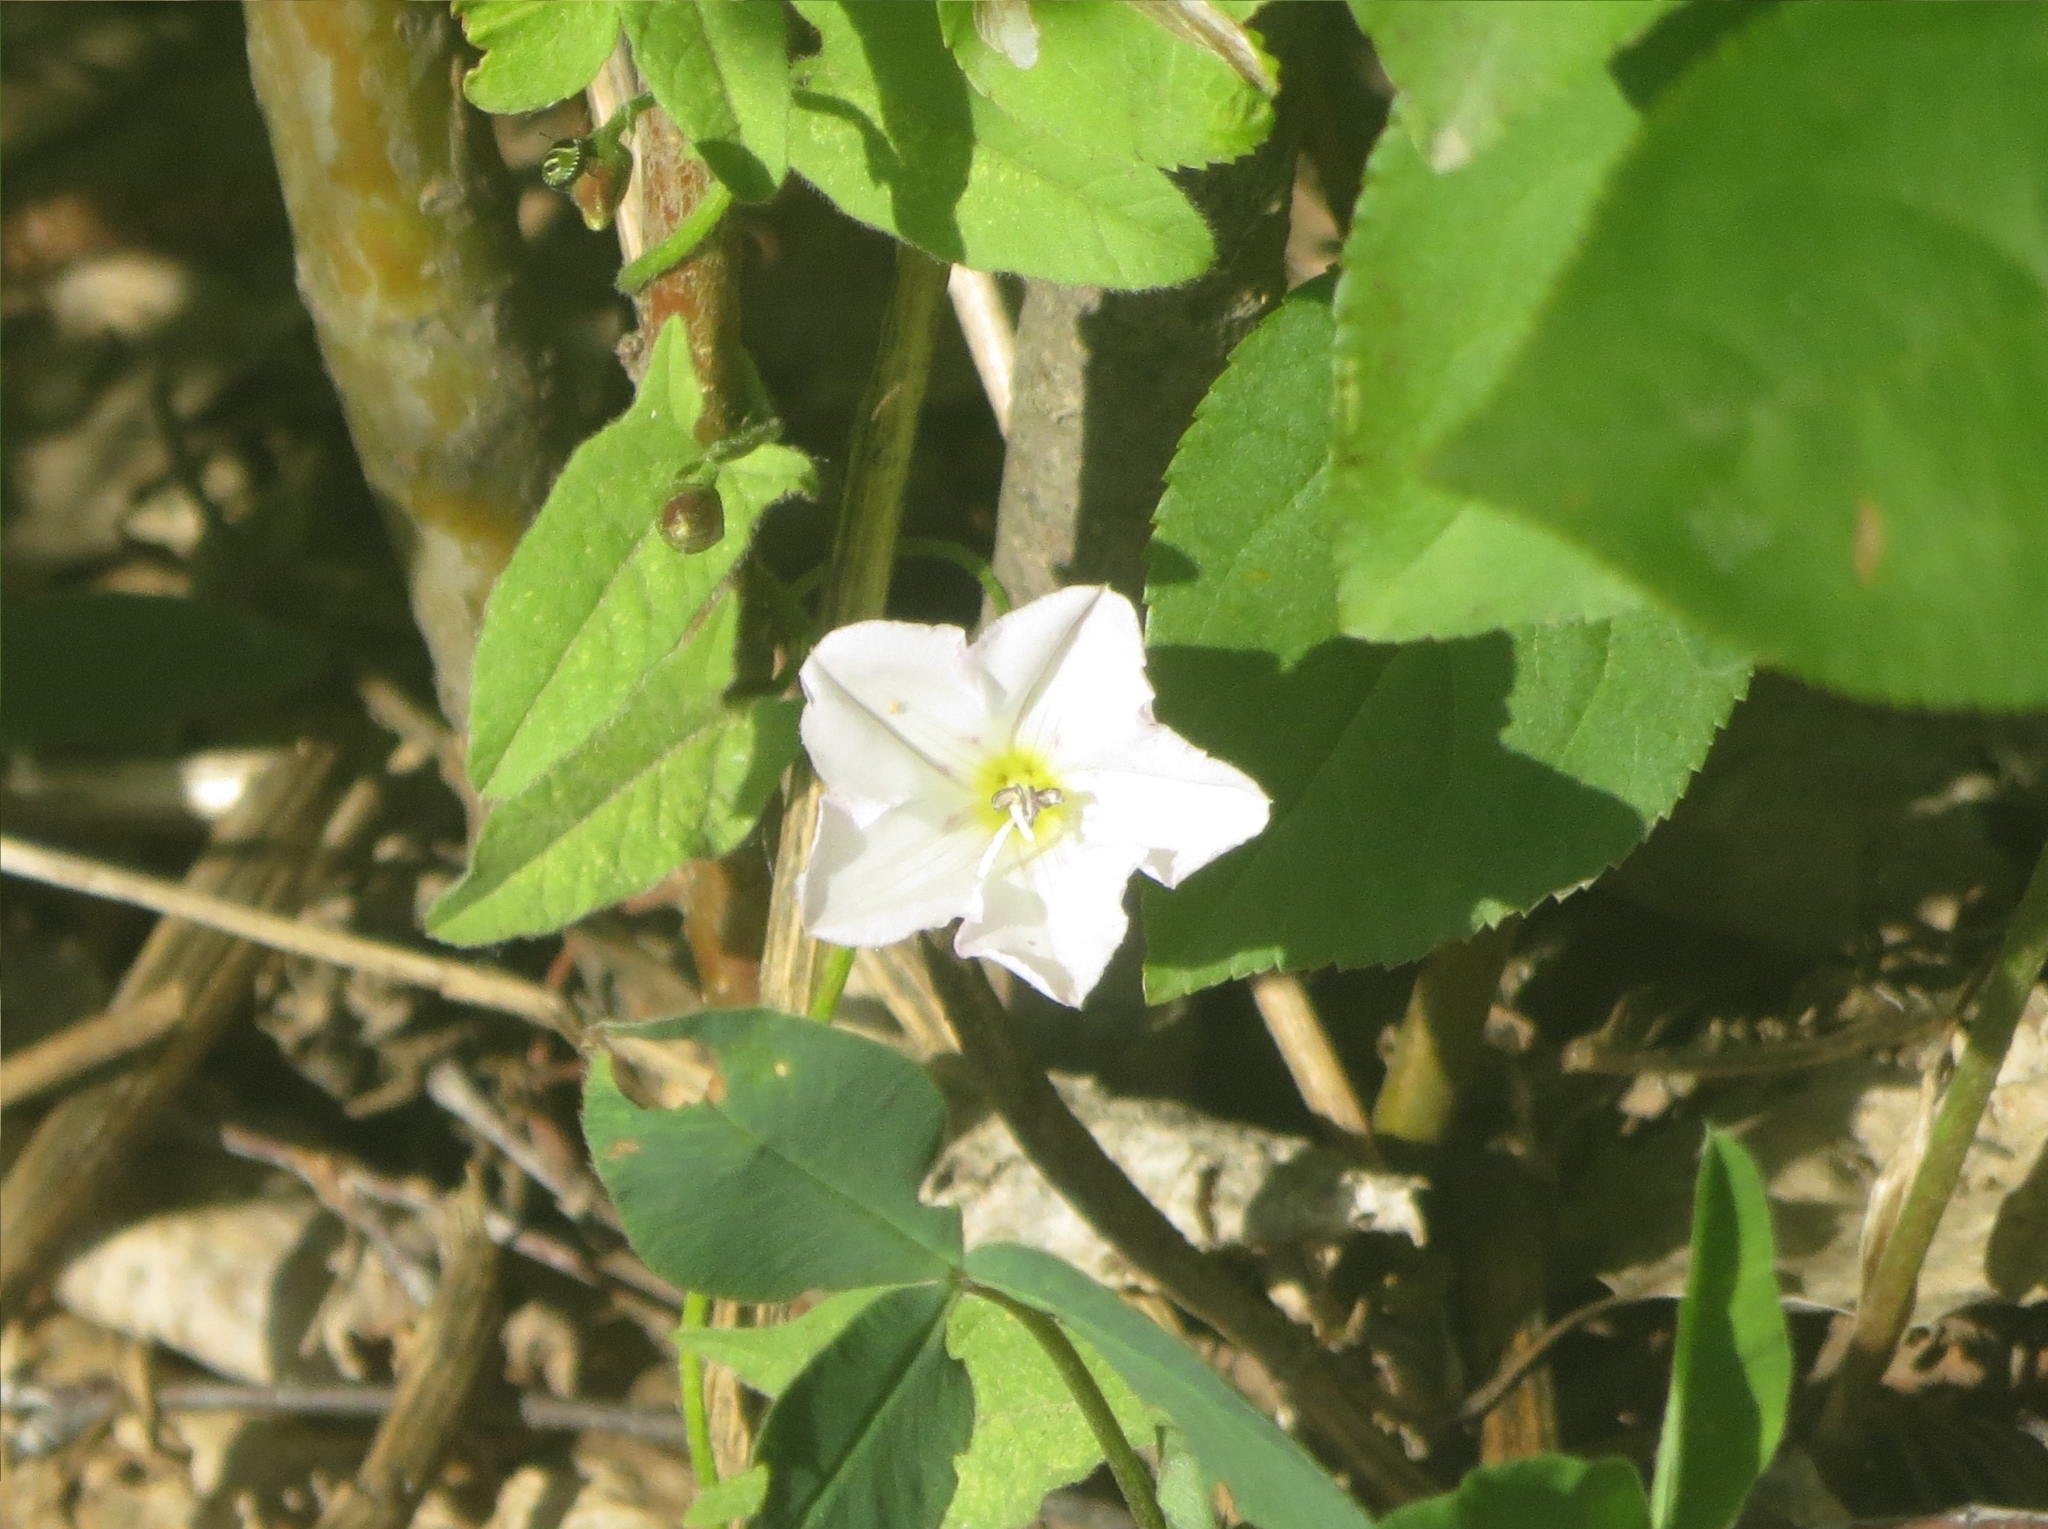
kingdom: Plantae
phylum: Tracheophyta
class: Magnoliopsida
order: Solanales
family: Convolvulaceae
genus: Convolvulus
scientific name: Convolvulus arvensis
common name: Field bindweed
